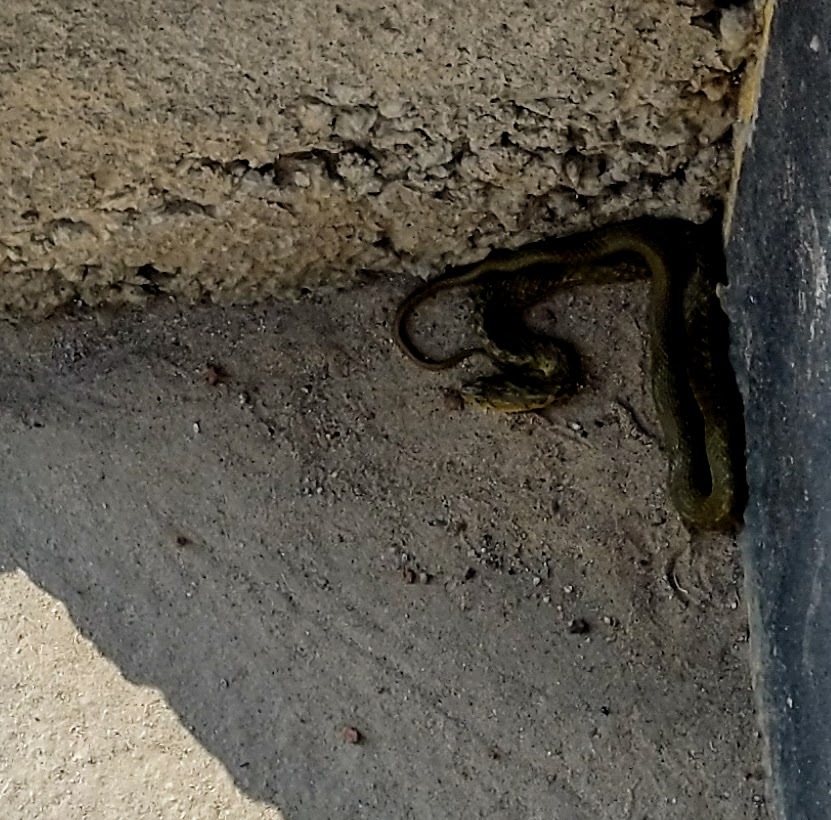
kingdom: Animalia
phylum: Chordata
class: Squamata
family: Colubridae
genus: Fowlea
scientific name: Fowlea piscator
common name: Asiatic water snake
